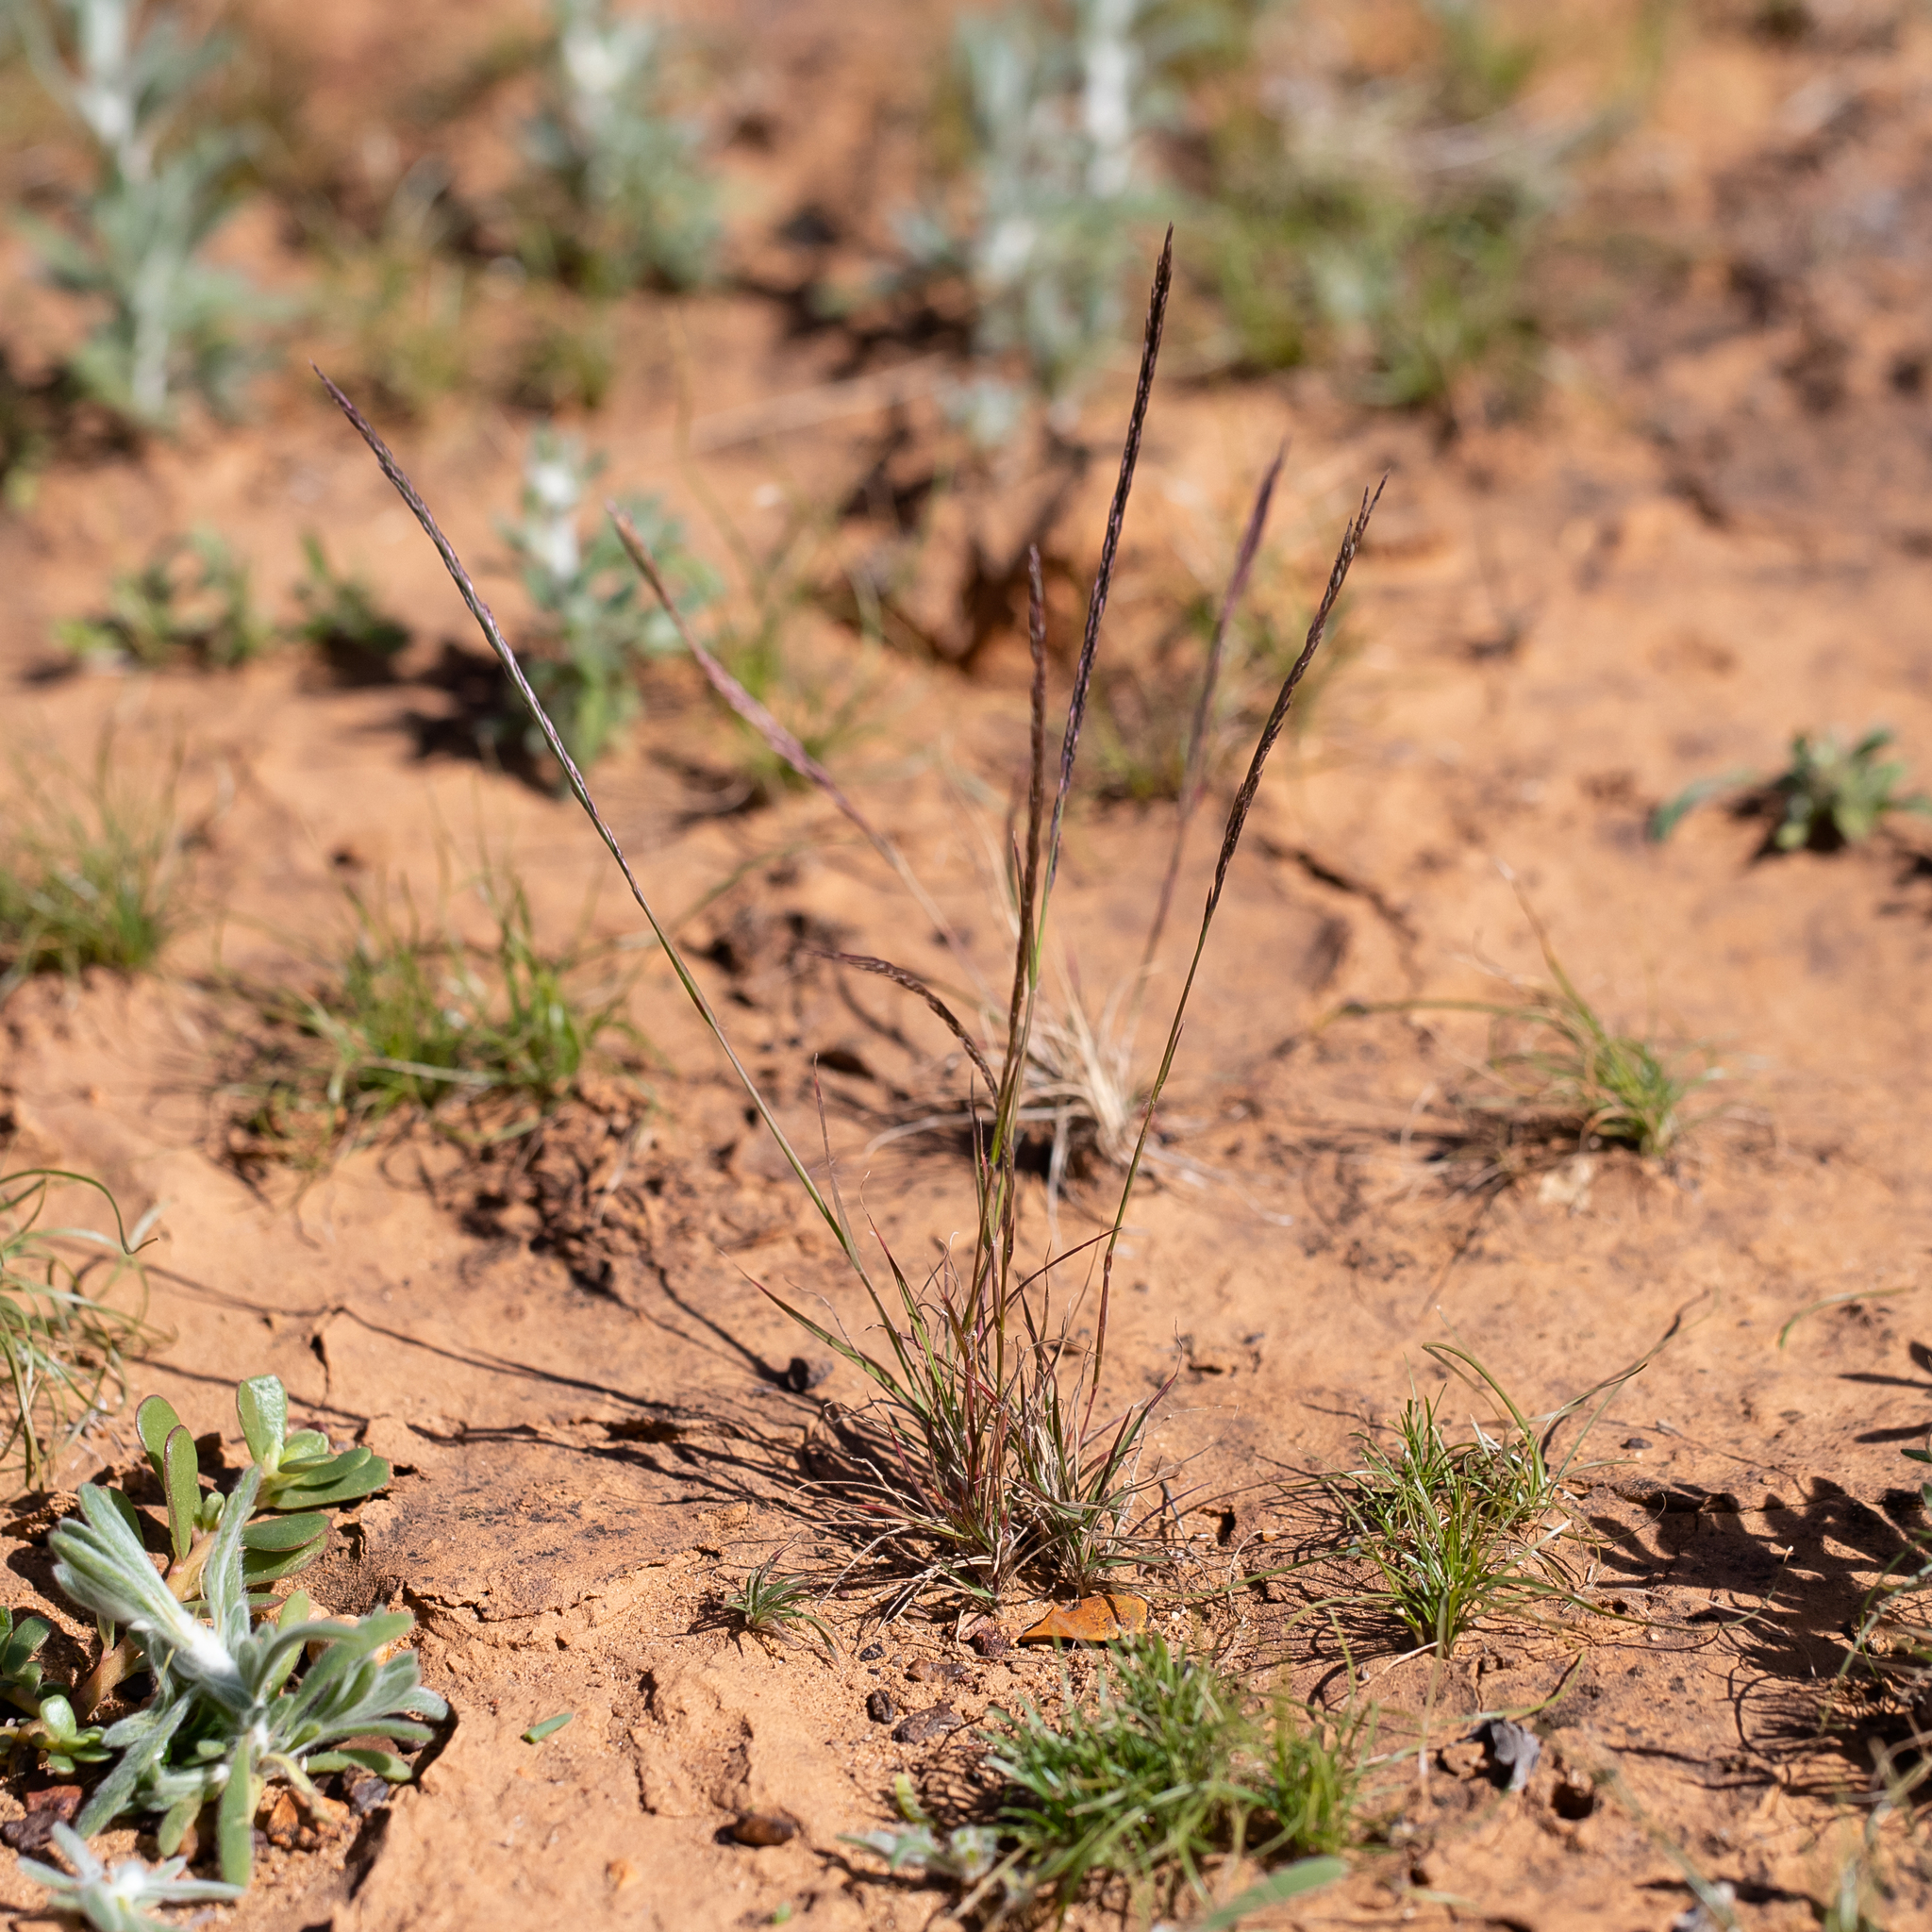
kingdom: Plantae
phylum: Tracheophyta
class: Liliopsida
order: Poales
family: Poaceae
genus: Tripogonella
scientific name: Tripogonella loliiformis
